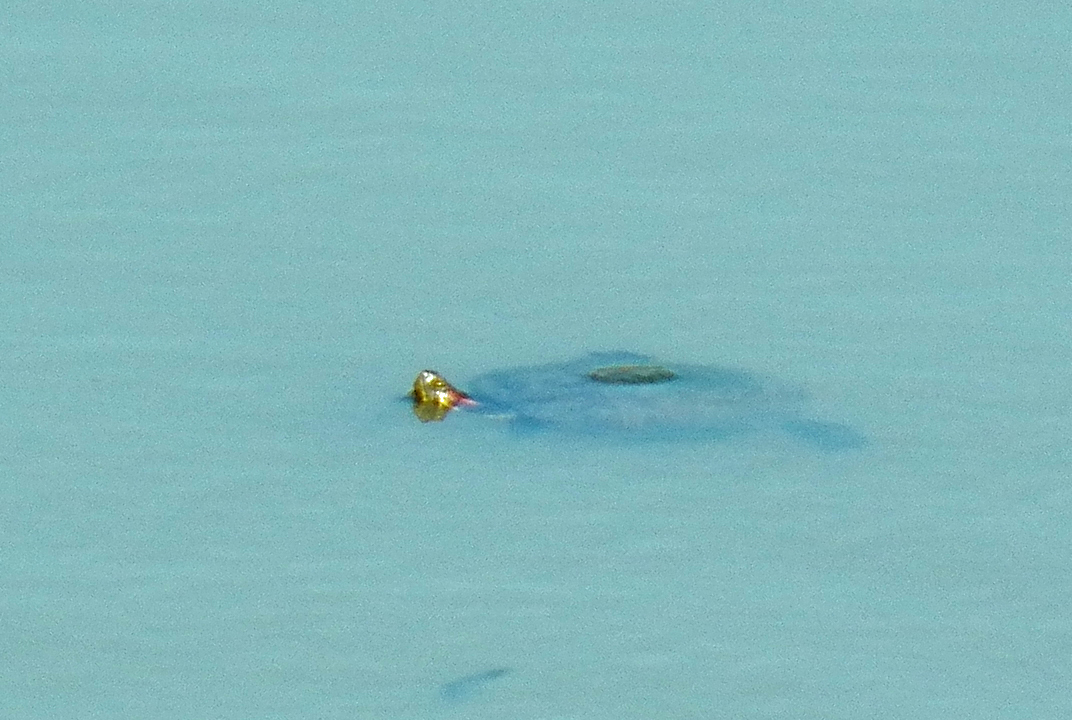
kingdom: Animalia
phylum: Chordata
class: Testudines
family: Emydidae
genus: Trachemys
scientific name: Trachemys scripta
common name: Slider
